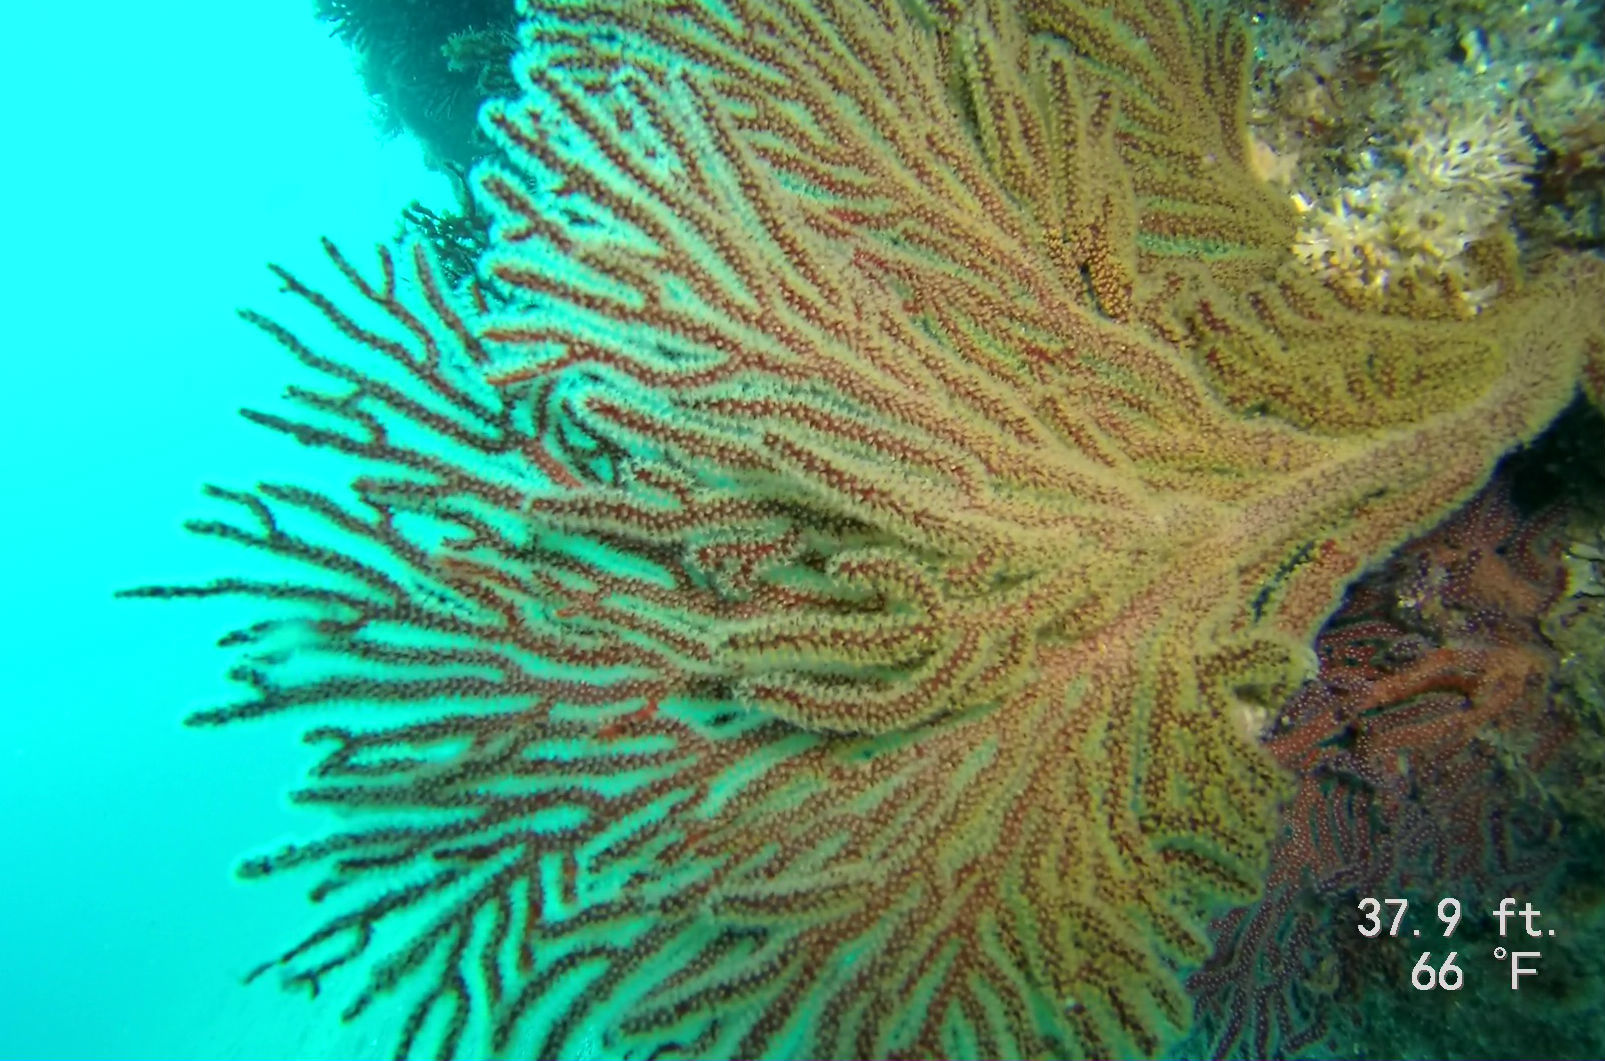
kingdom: Animalia
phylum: Cnidaria
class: Anthozoa
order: Malacalcyonacea
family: Plexauridae
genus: Muricea
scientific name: Muricea californica
